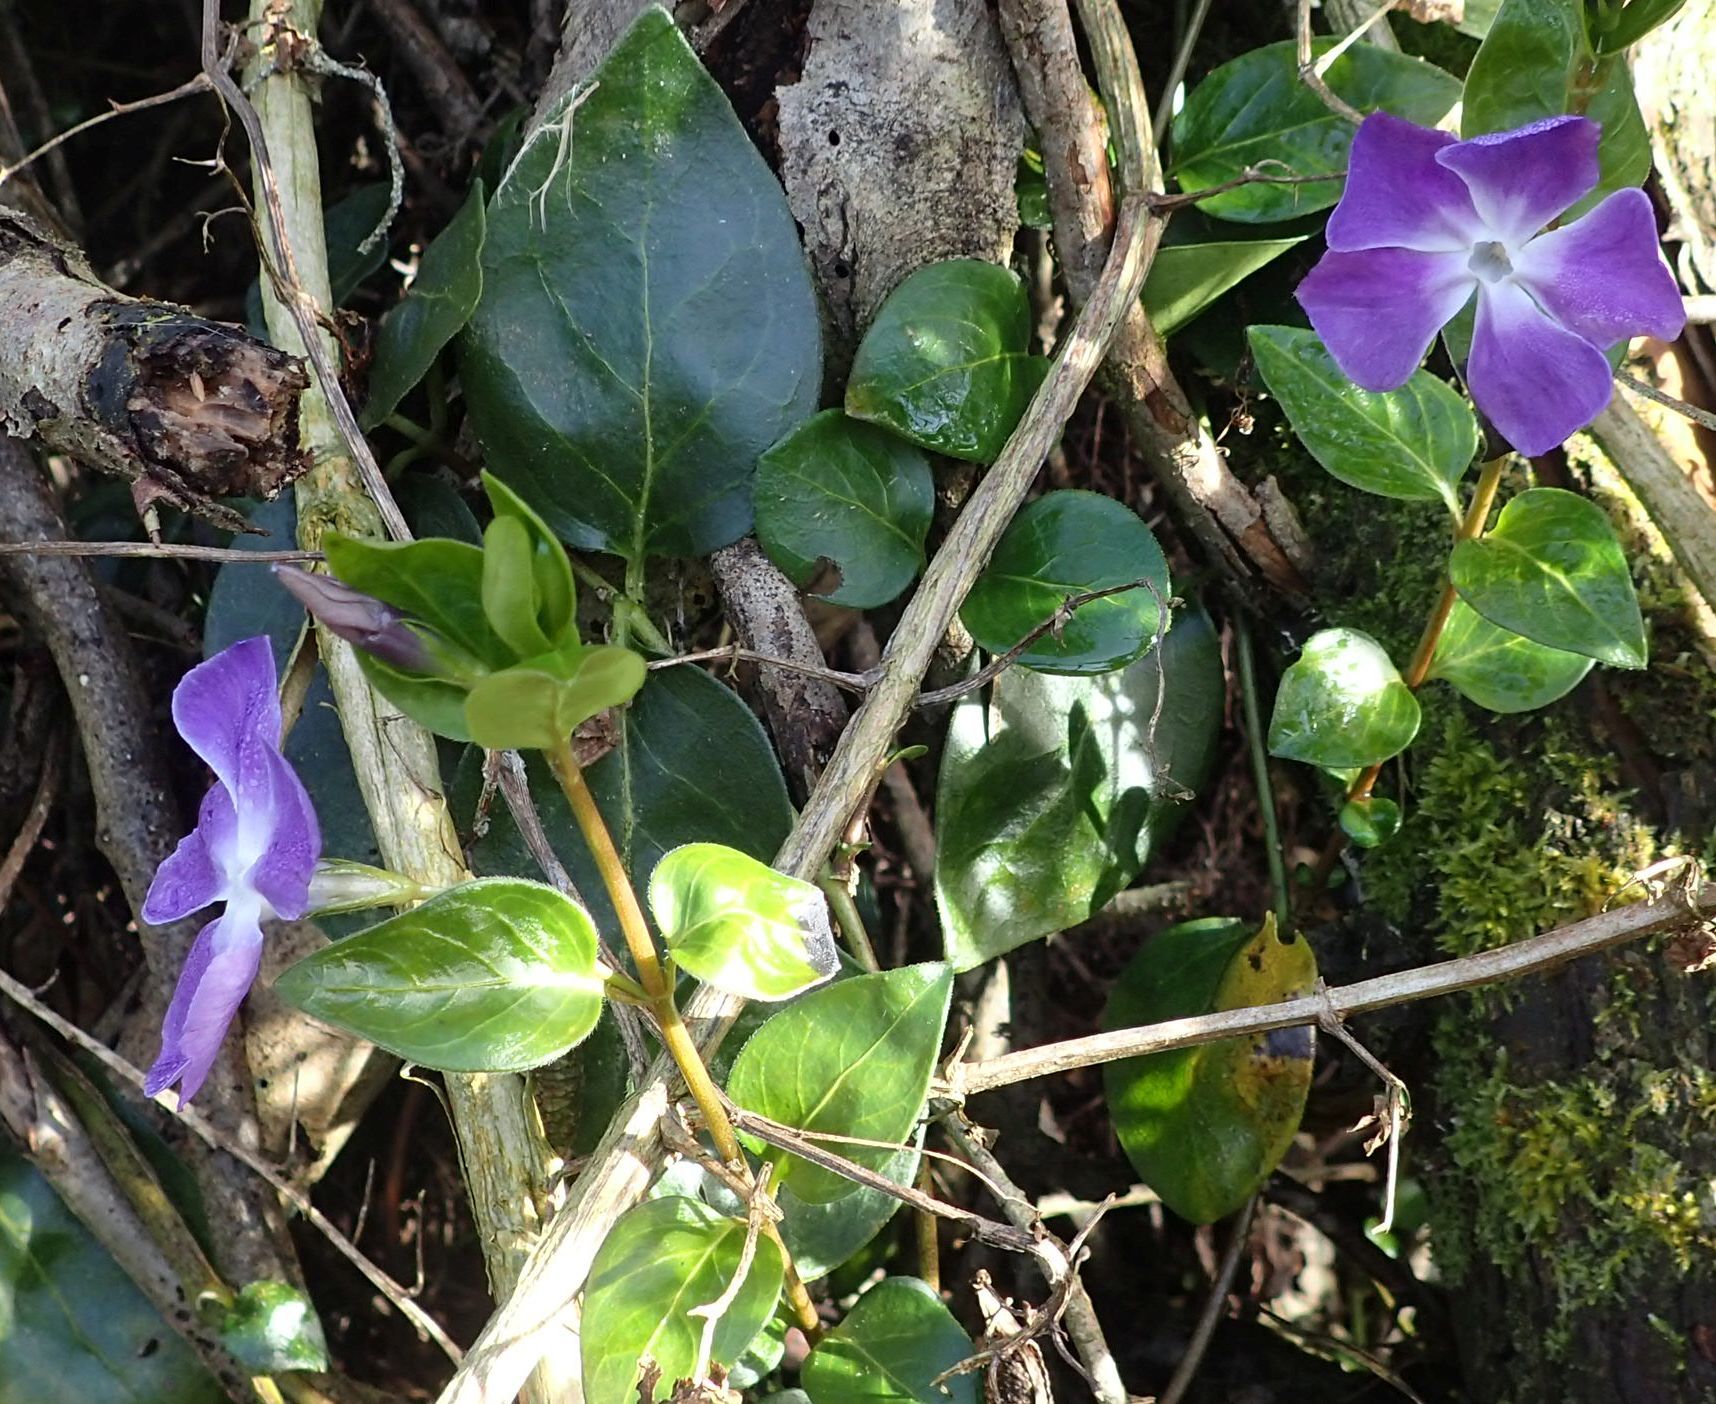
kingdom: Plantae
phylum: Tracheophyta
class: Magnoliopsida
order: Gentianales
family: Apocynaceae
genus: Vinca
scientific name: Vinca major
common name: Greater periwinkle
